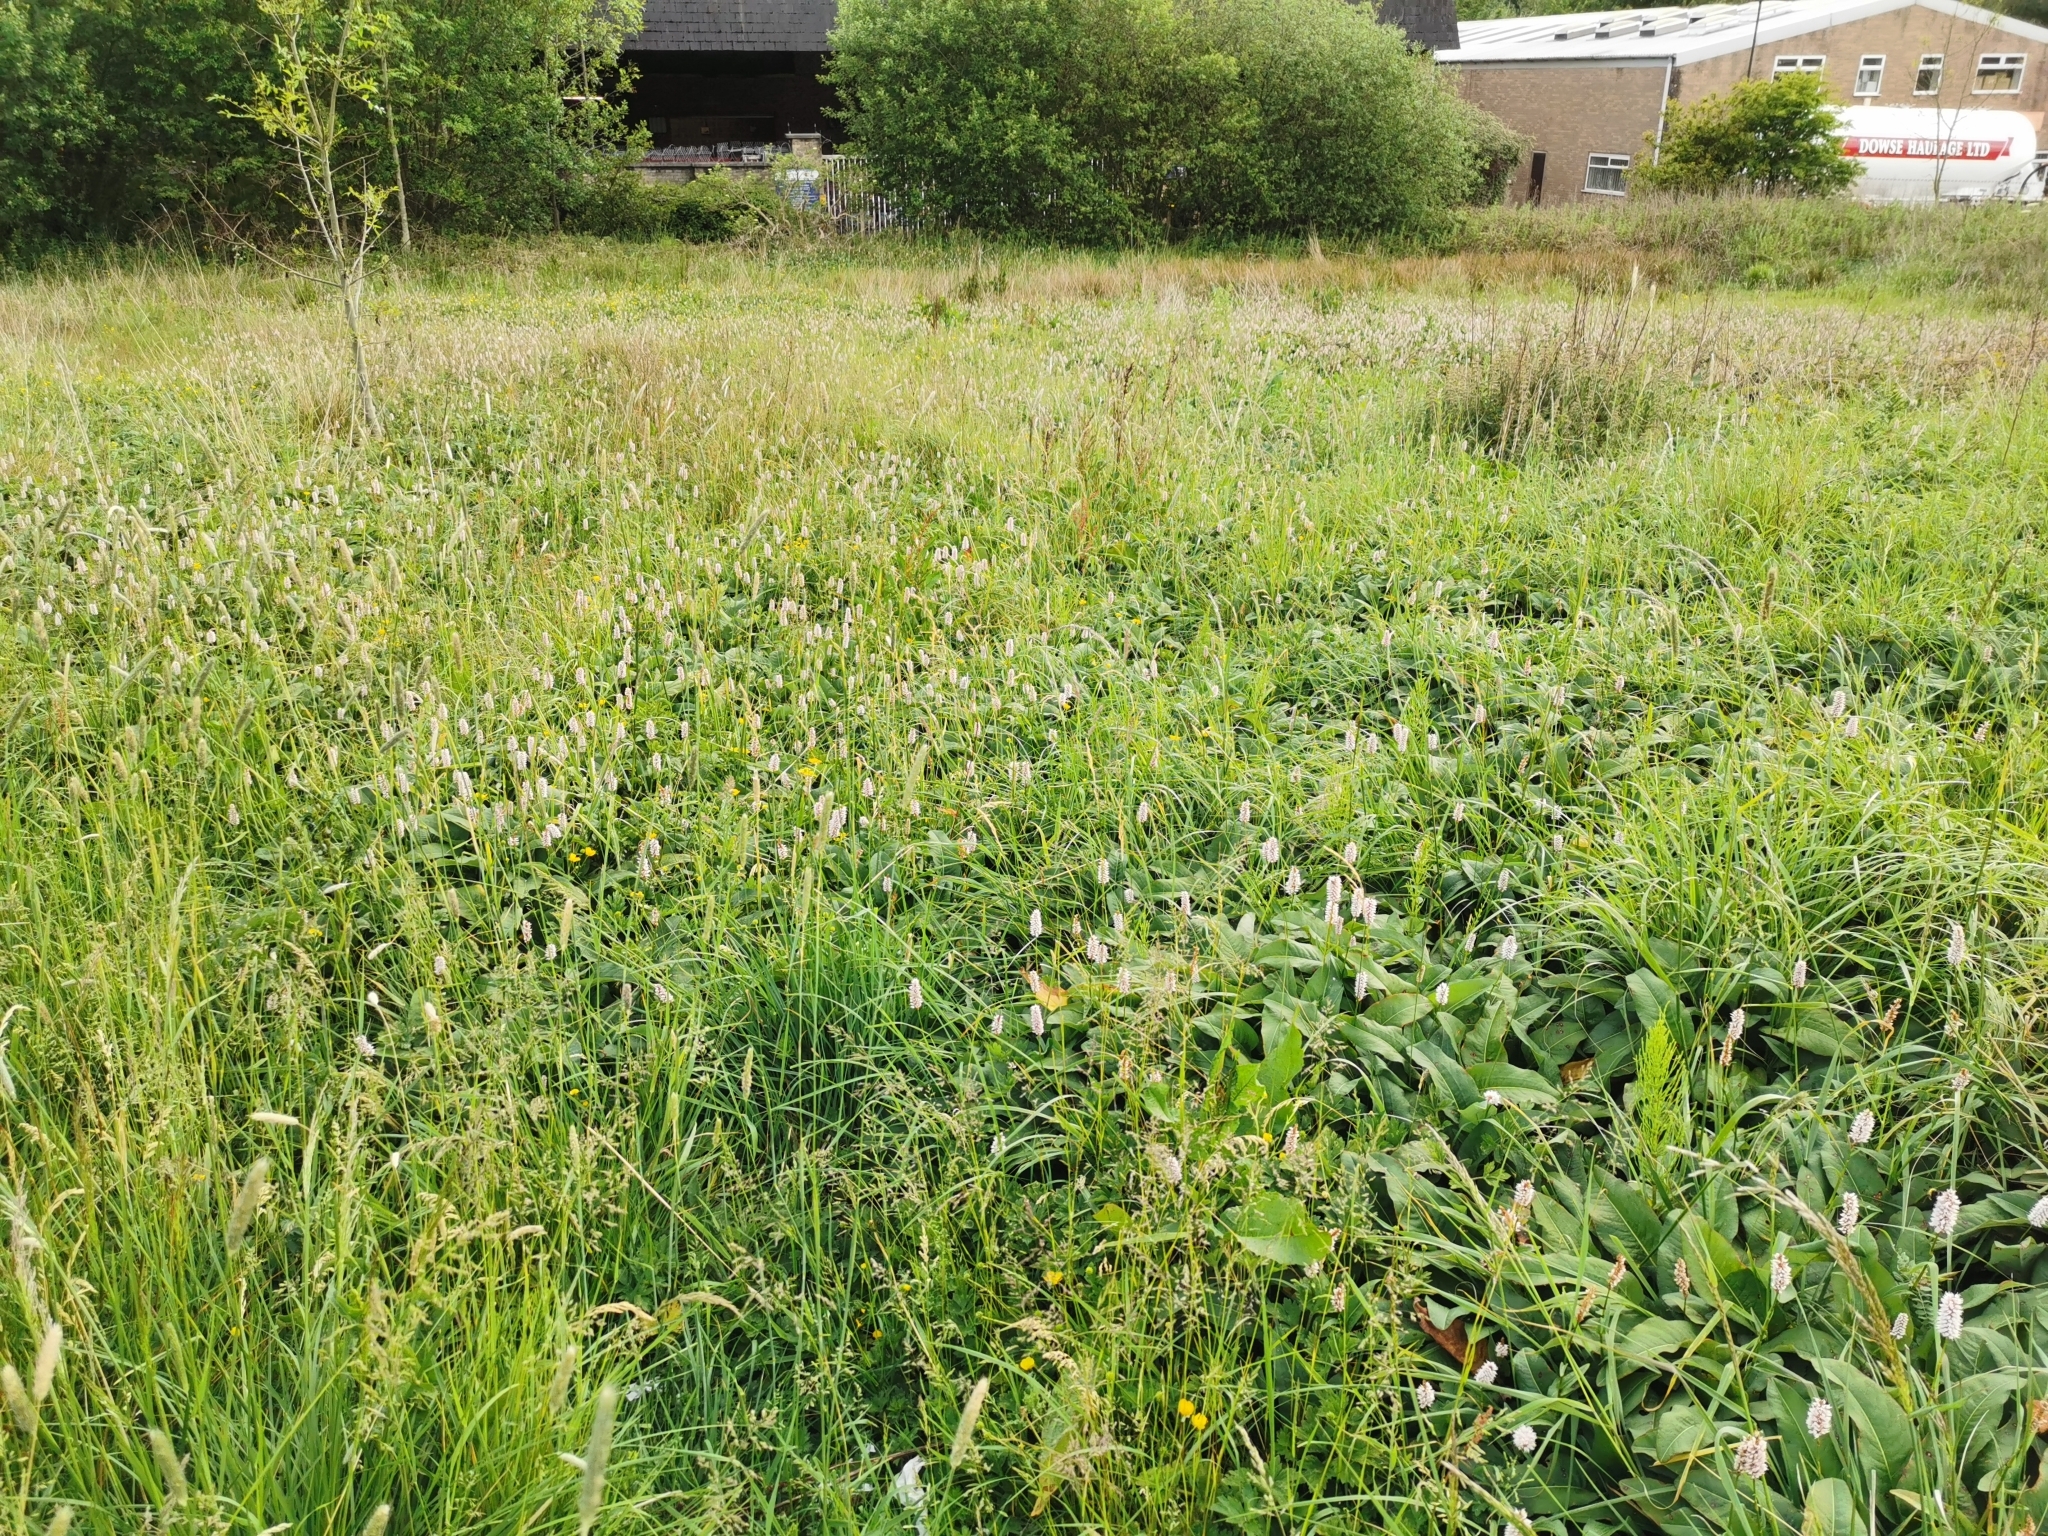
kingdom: Plantae
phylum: Tracheophyta
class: Magnoliopsida
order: Caryophyllales
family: Polygonaceae
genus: Bistorta
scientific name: Bistorta officinalis
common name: Common bistort
